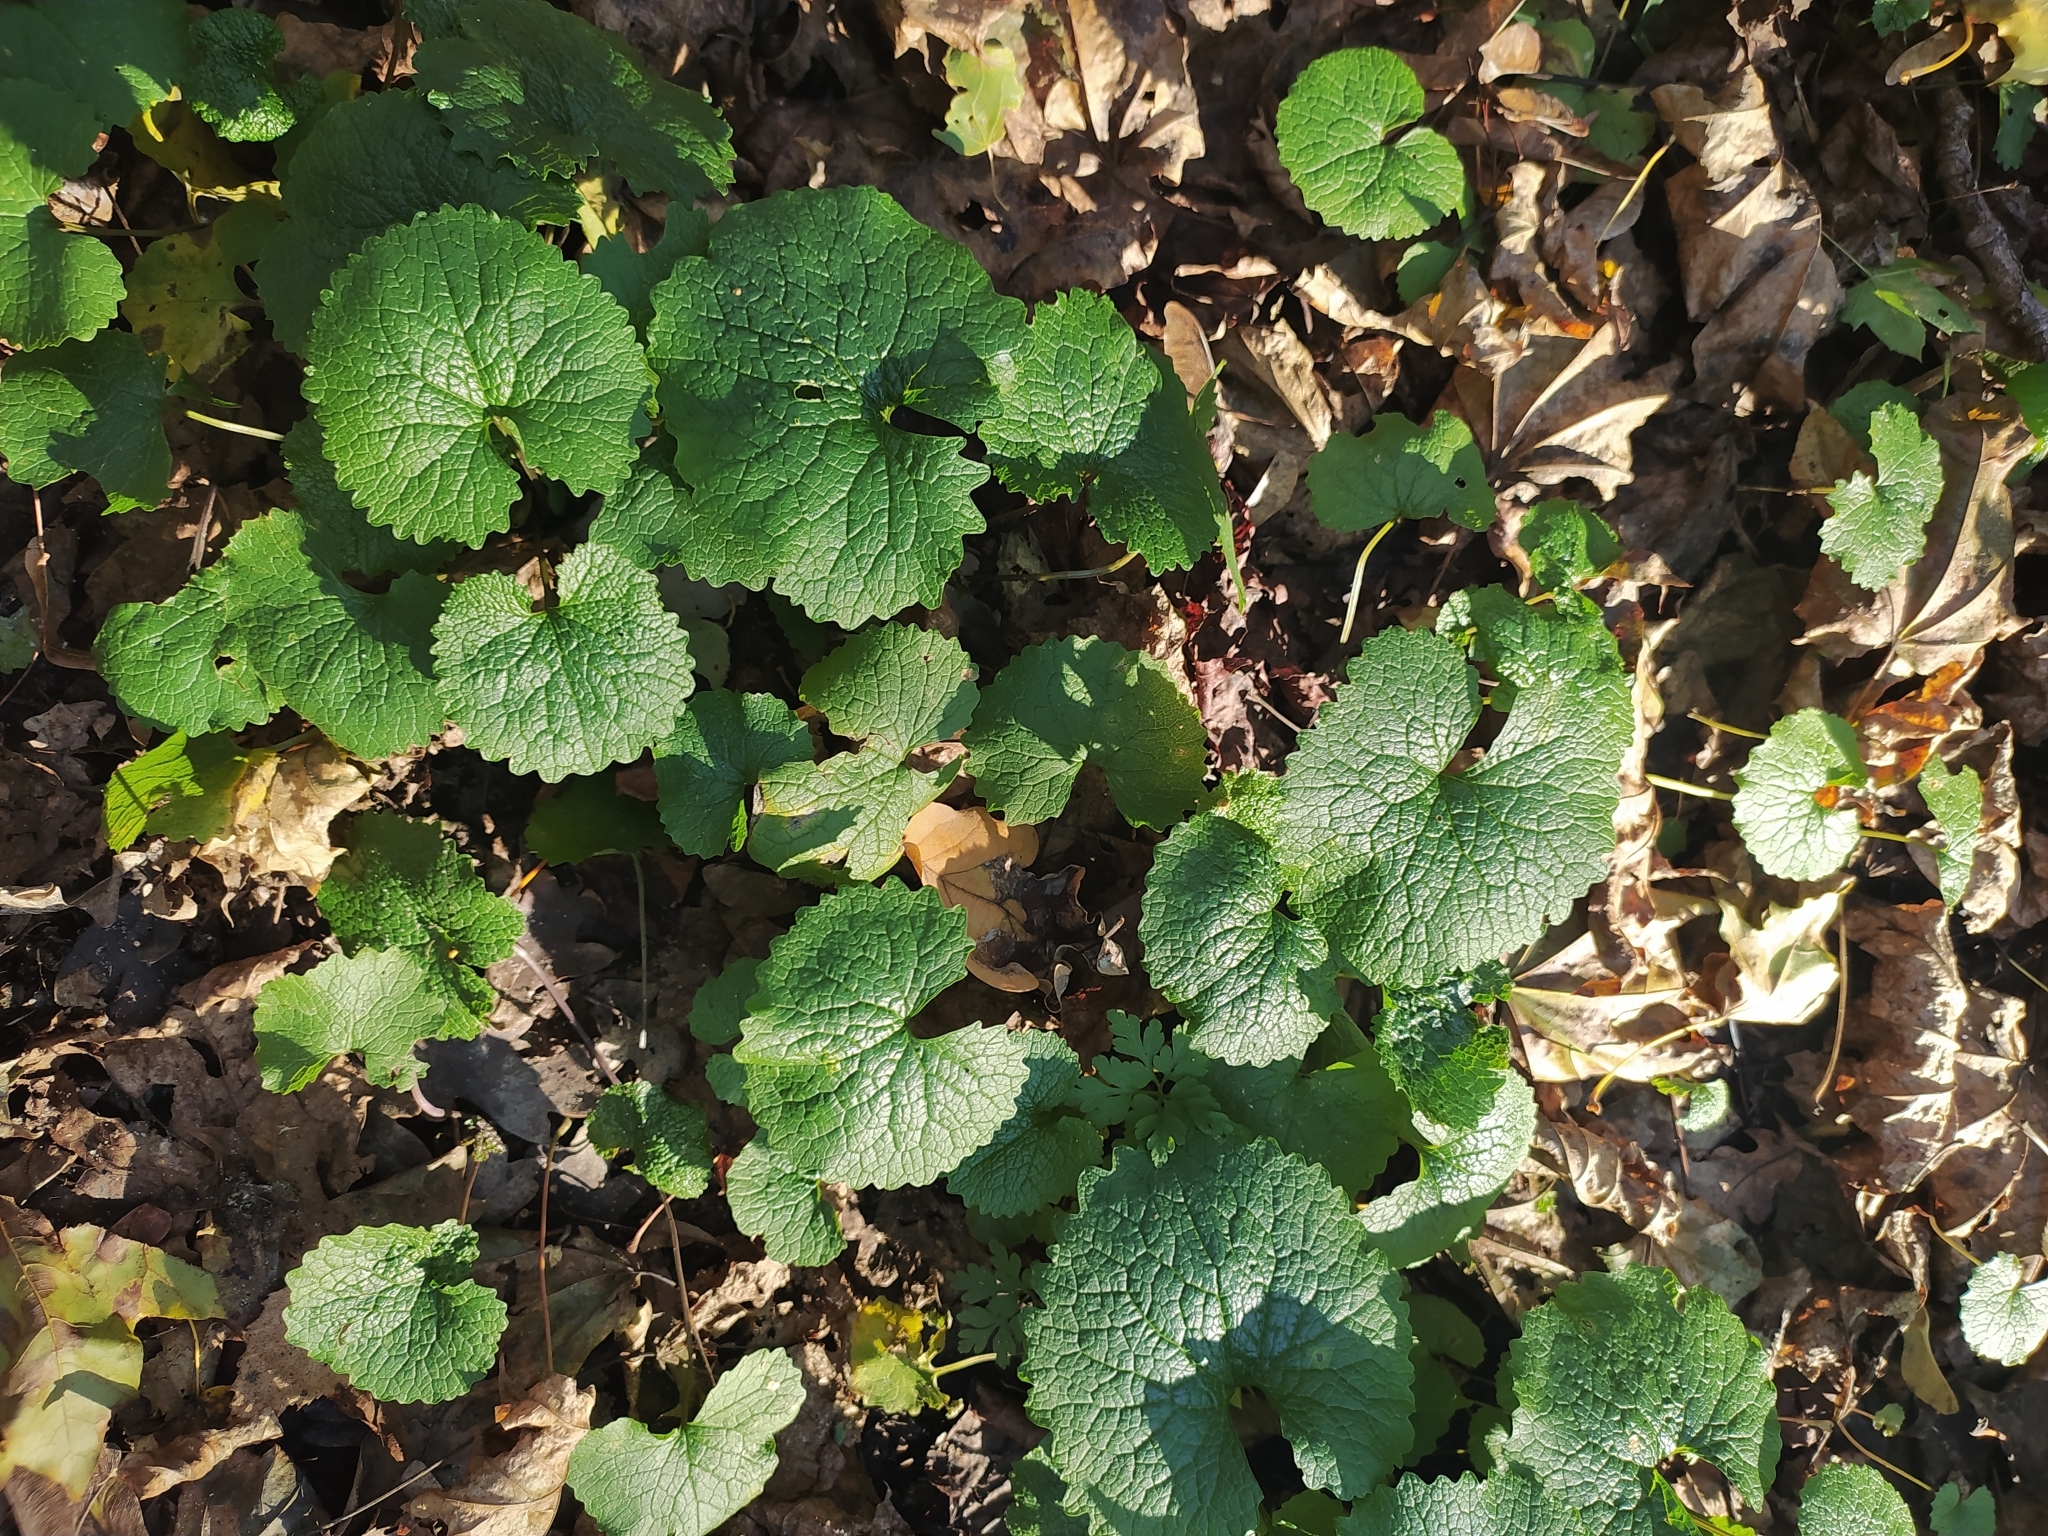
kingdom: Plantae
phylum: Tracheophyta
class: Magnoliopsida
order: Brassicales
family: Brassicaceae
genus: Alliaria
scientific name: Alliaria petiolata
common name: Garlic mustard
